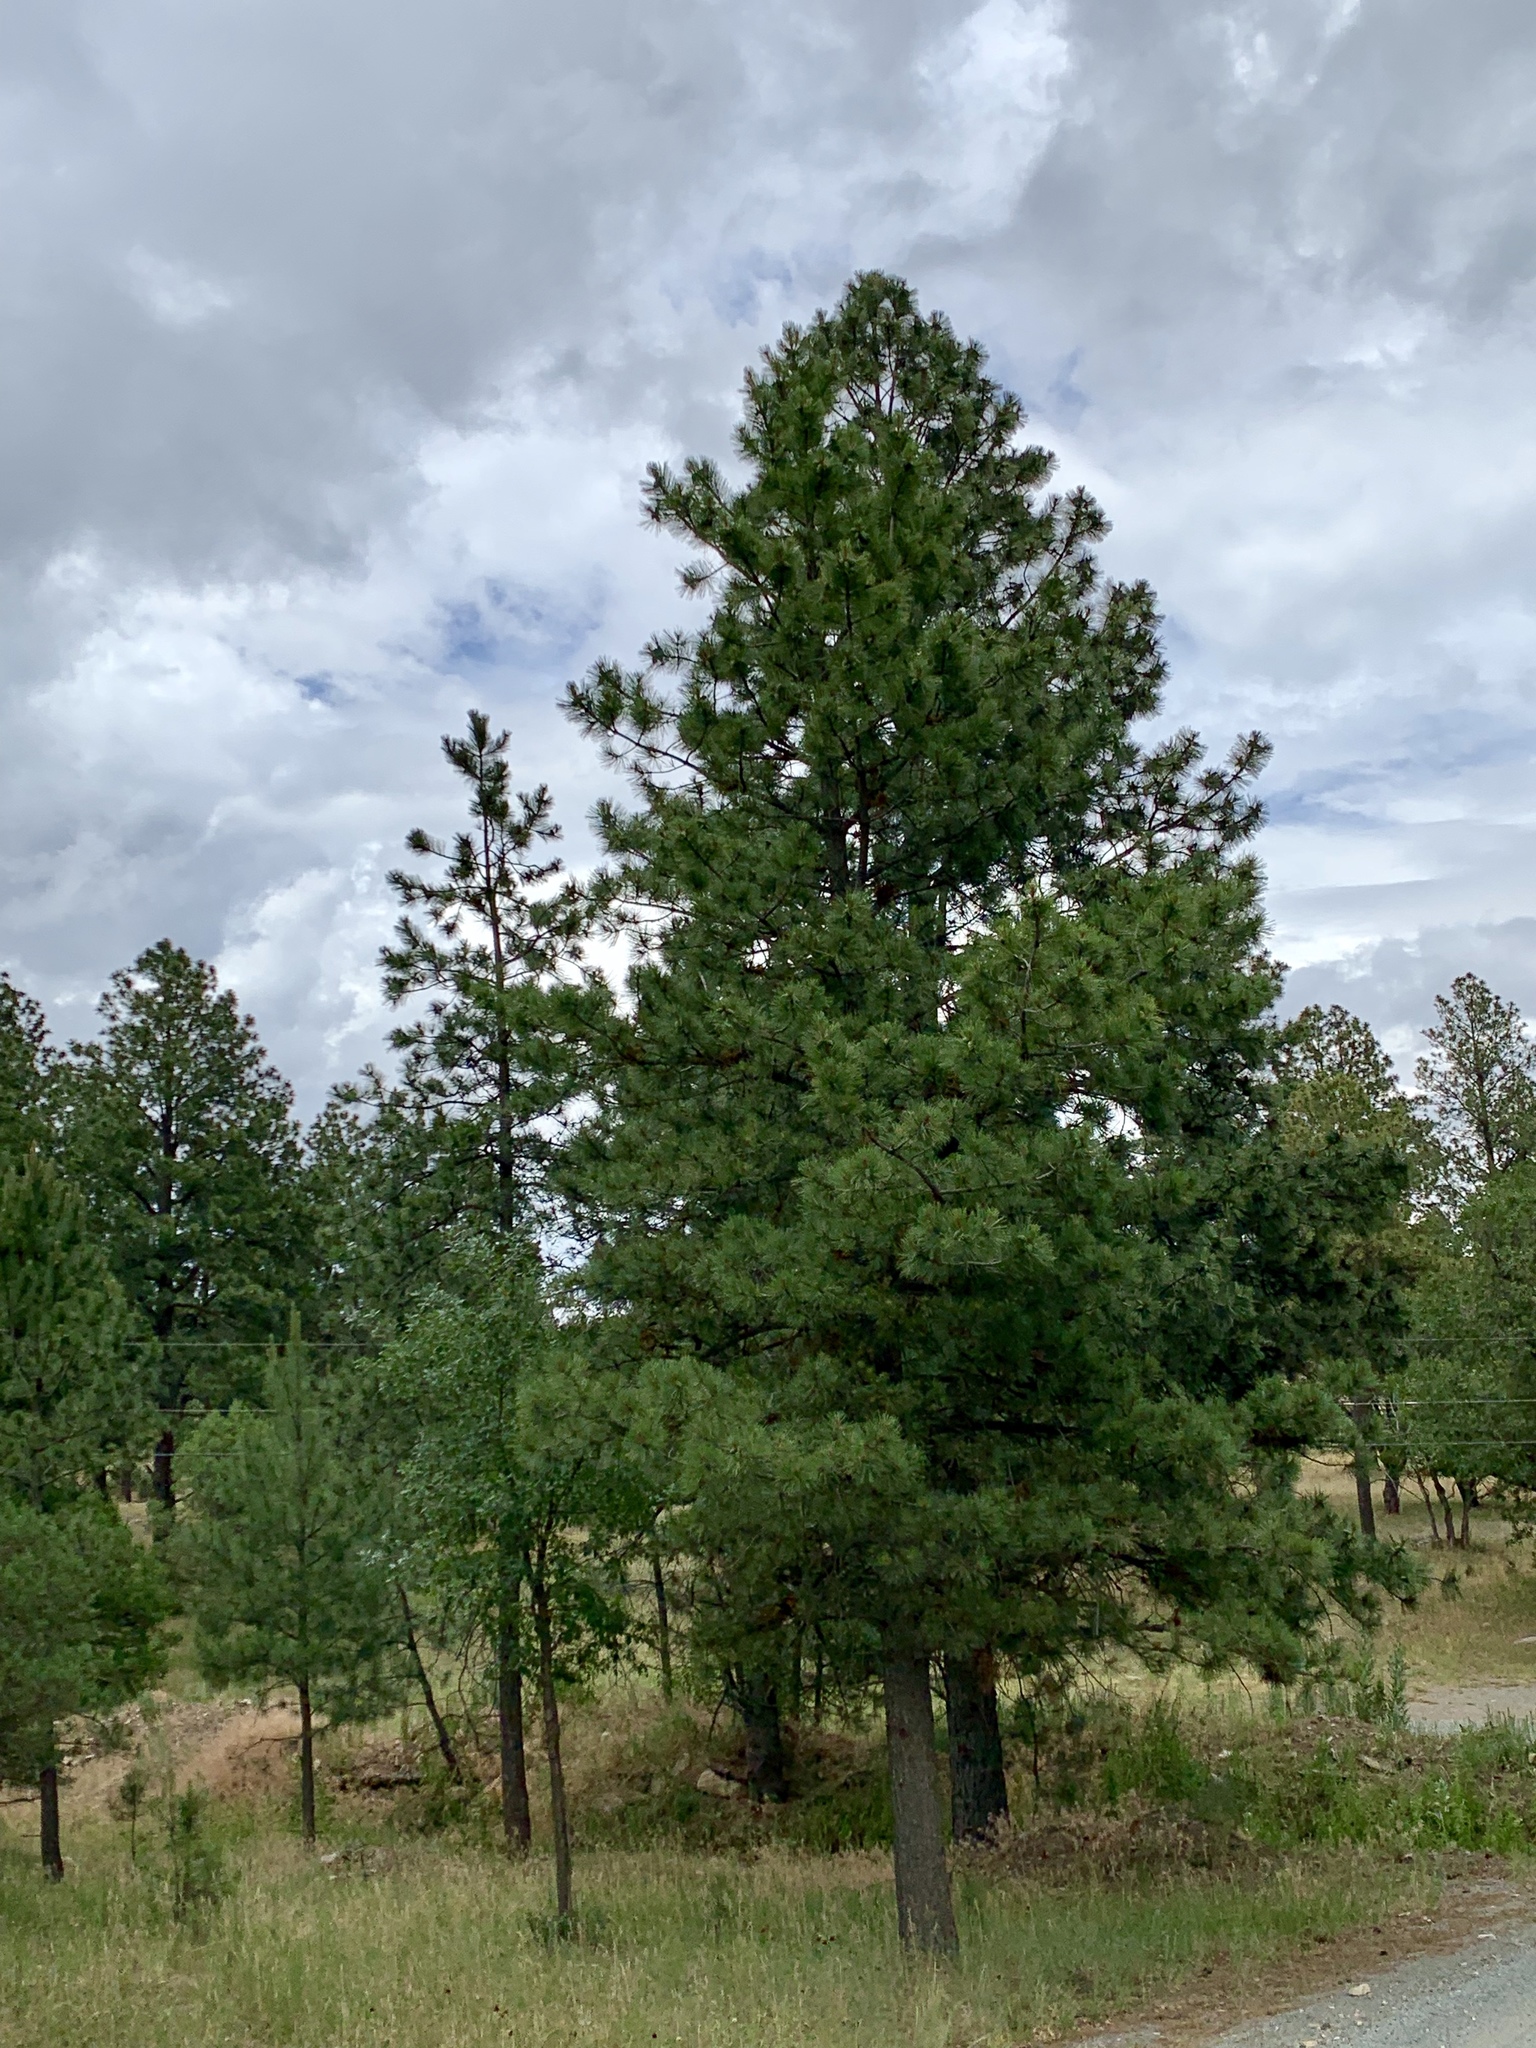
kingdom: Plantae
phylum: Tracheophyta
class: Pinopsida
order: Pinales
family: Pinaceae
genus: Pinus
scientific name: Pinus ponderosa
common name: Western yellow-pine
